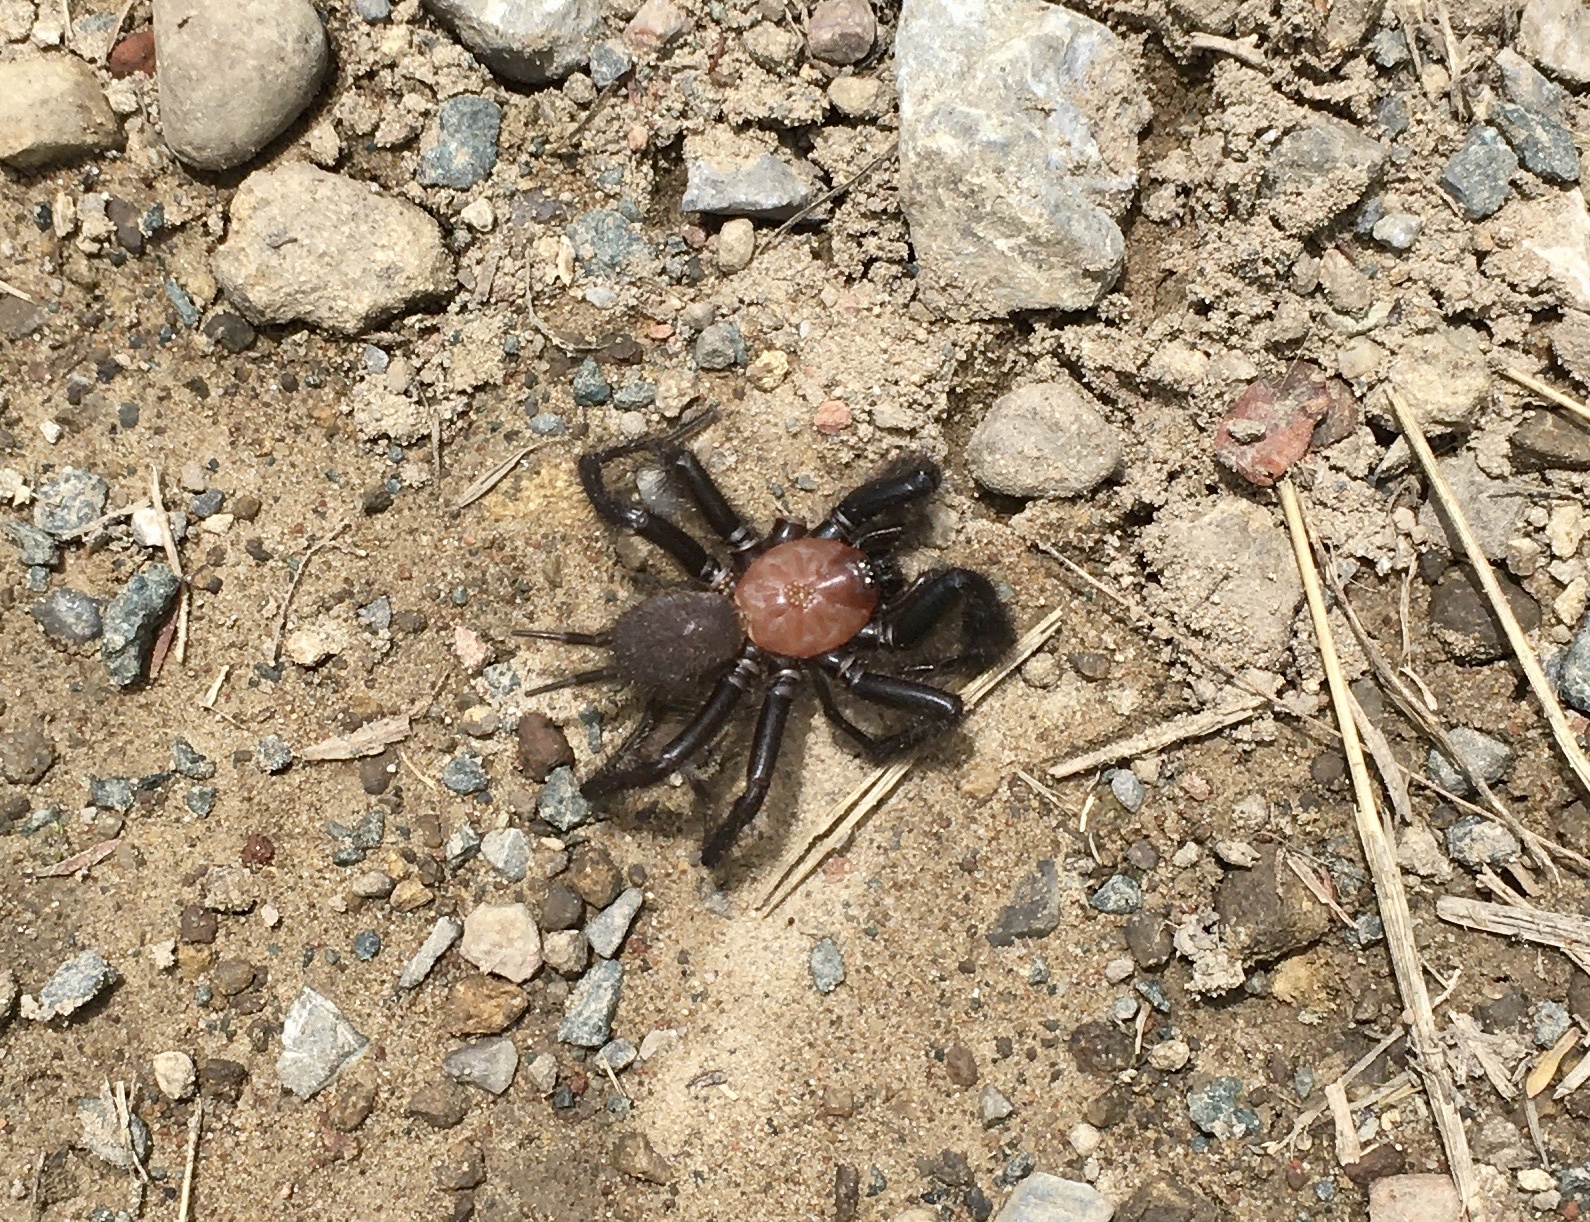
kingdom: Animalia
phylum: Arthropoda
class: Arachnida
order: Araneae
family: Porrhothelidae
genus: Porrhothele
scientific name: Porrhothele antipodiana
